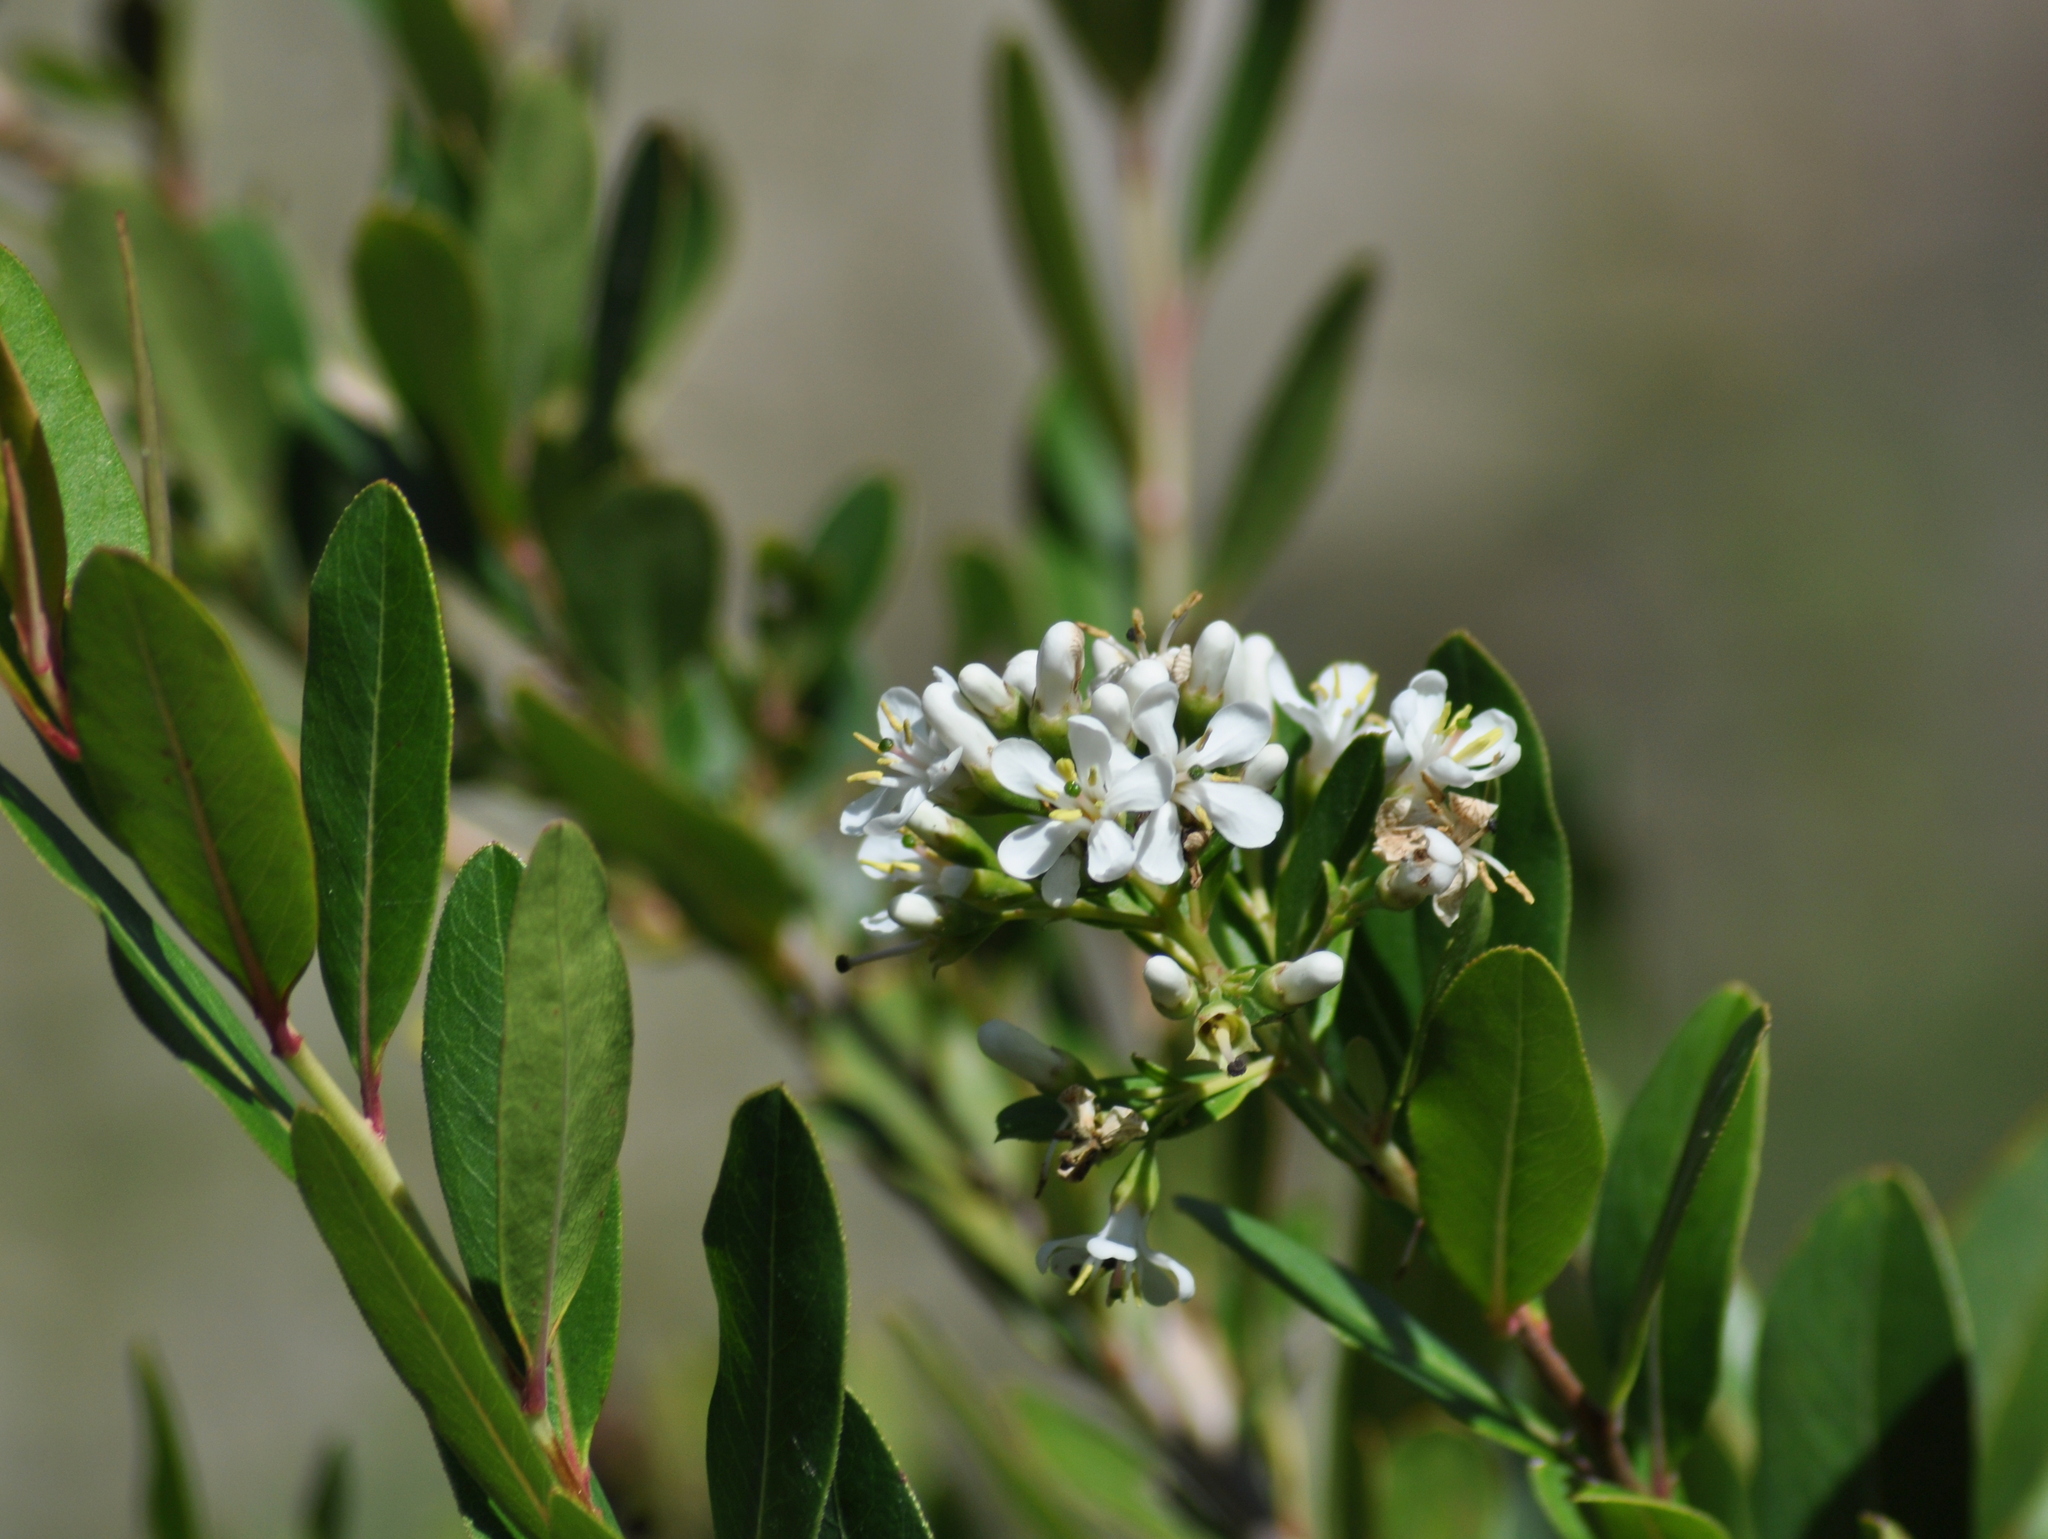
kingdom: Plantae
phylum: Tracheophyta
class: Magnoliopsida
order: Escalloniales
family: Escalloniaceae
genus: Escallonia
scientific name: Escallonia bifida
